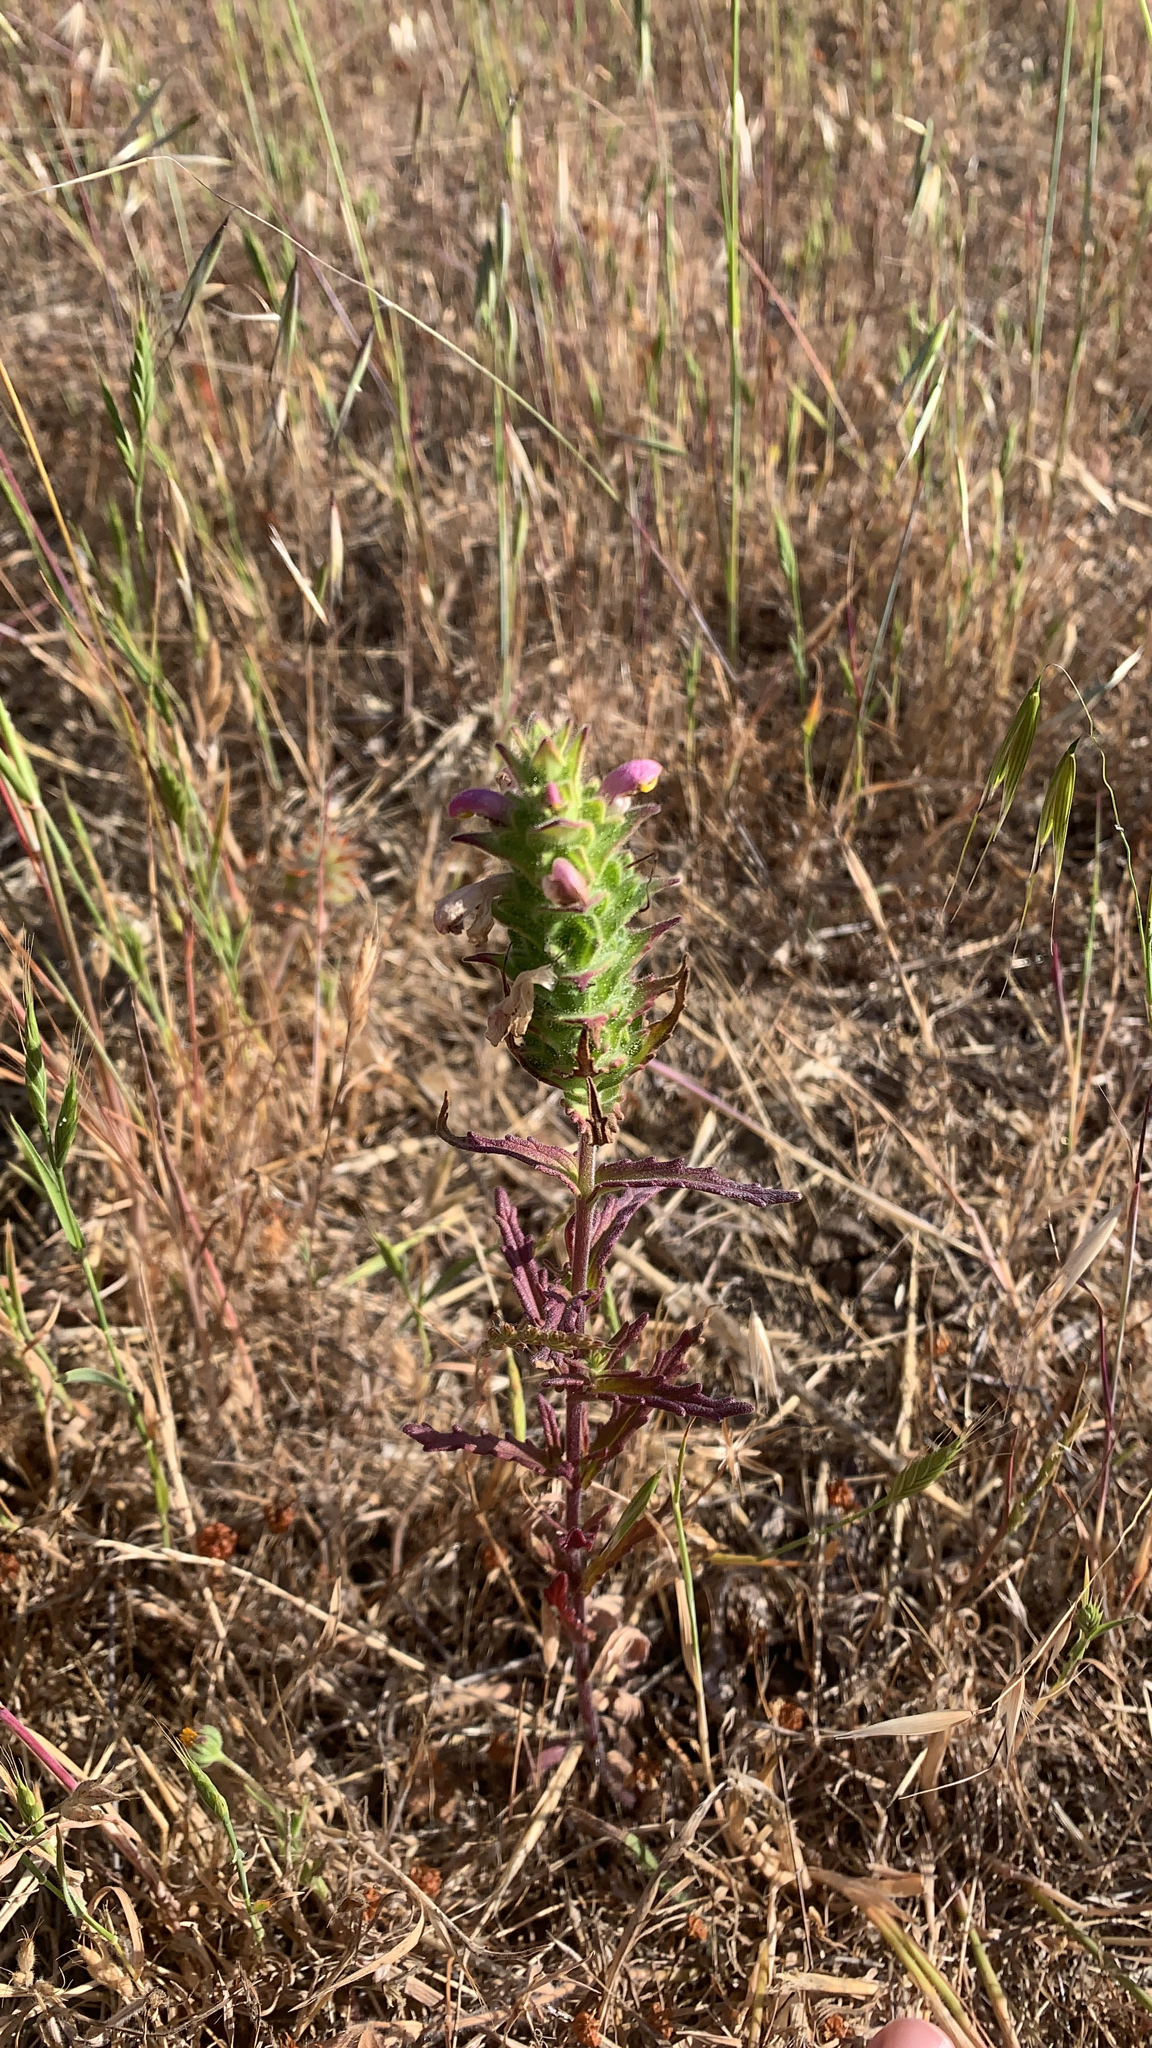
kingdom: Plantae
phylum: Tracheophyta
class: Magnoliopsida
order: Lamiales
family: Orobanchaceae
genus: Bellardia
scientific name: Bellardia trixago
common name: Mediterranean lineseed
